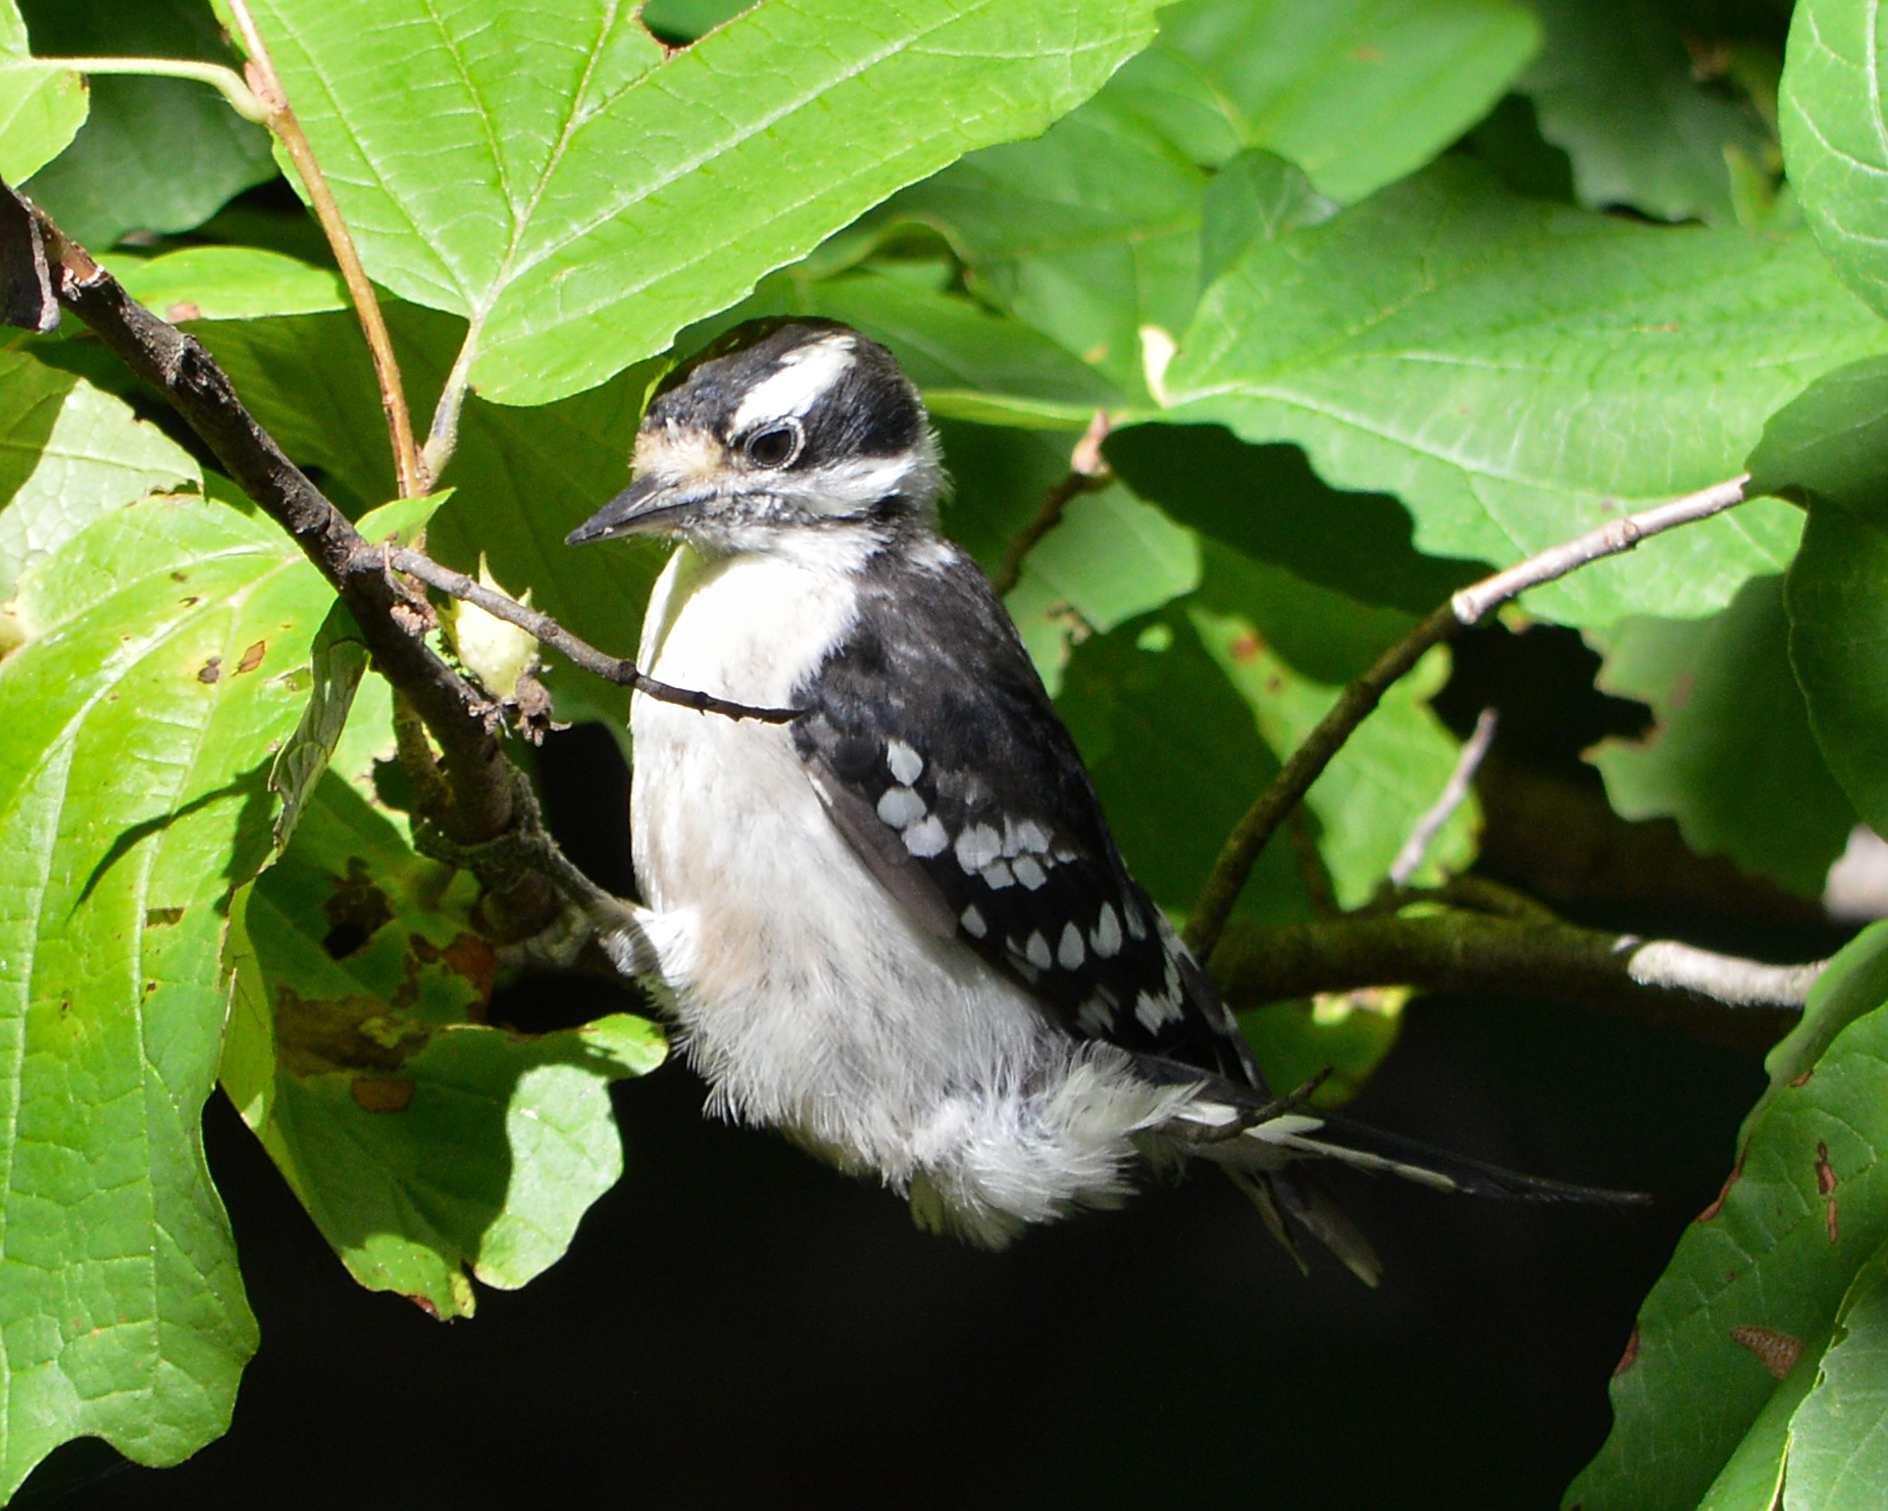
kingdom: Animalia
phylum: Chordata
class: Aves
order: Piciformes
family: Picidae
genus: Dryobates
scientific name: Dryobates pubescens
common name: Downy woodpecker
